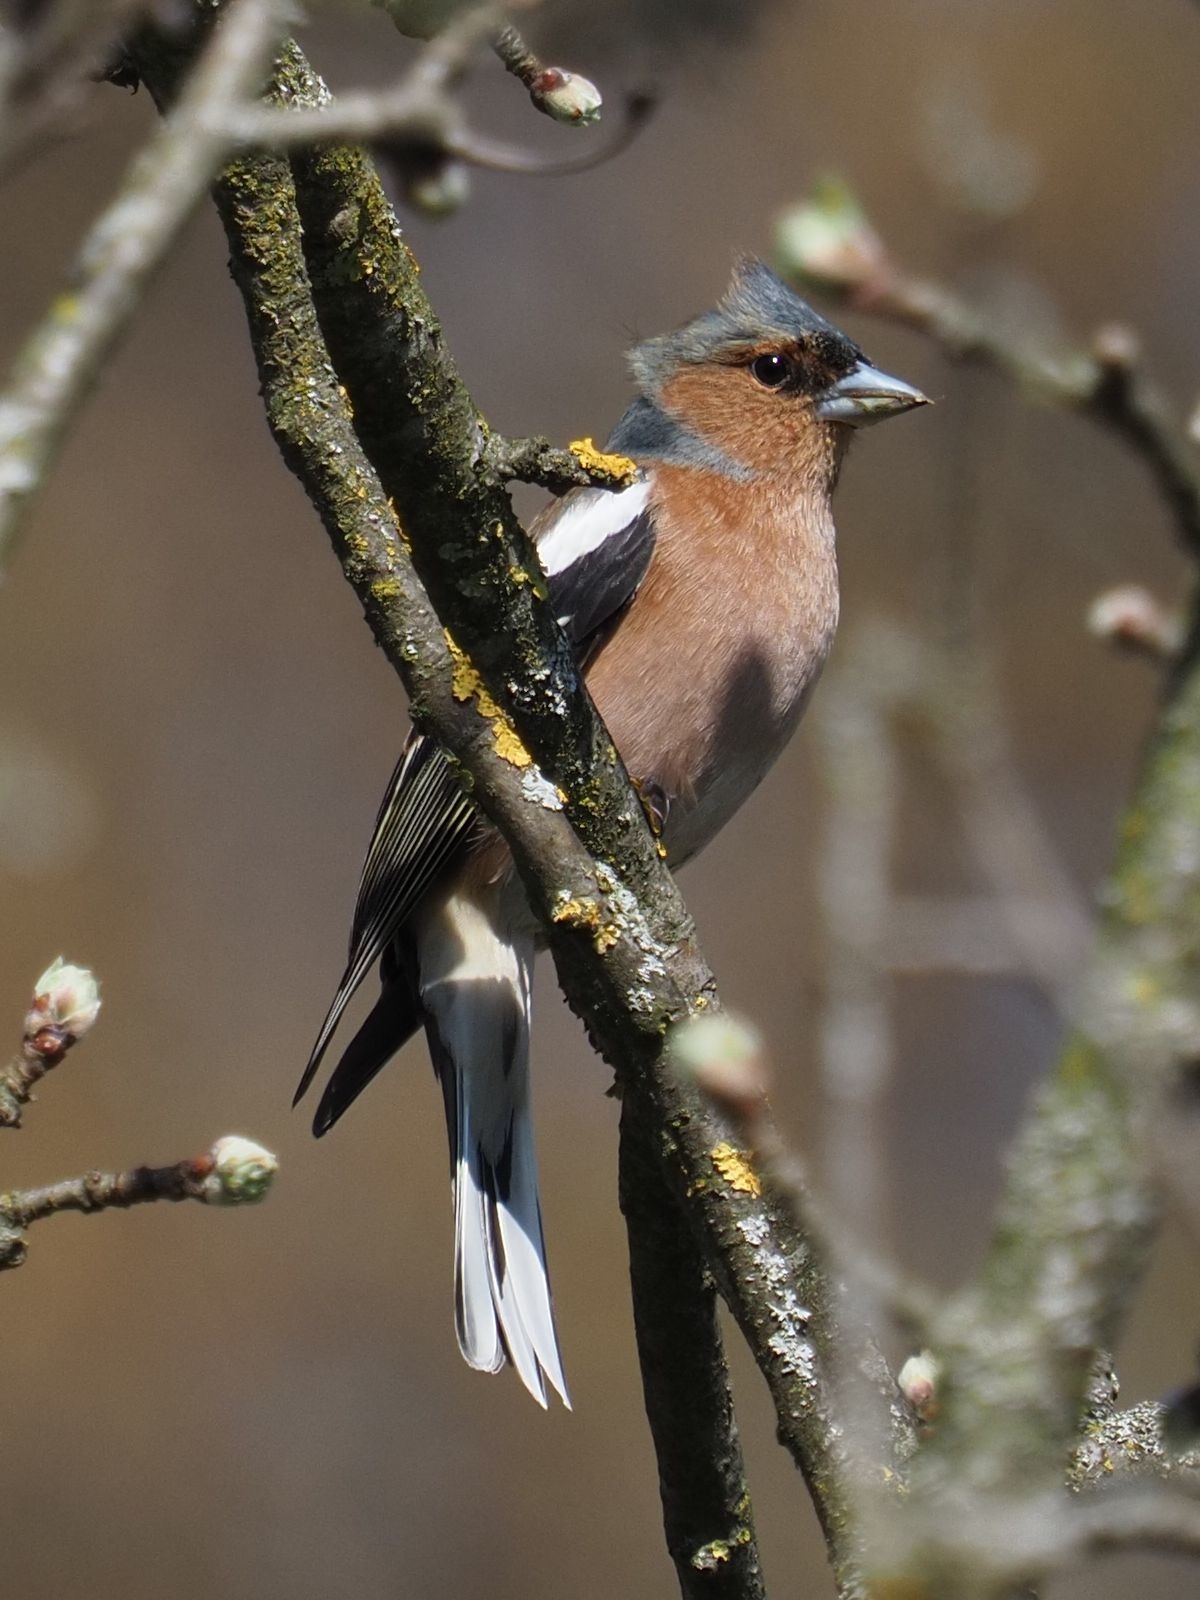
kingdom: Animalia
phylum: Chordata
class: Aves
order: Passeriformes
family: Fringillidae
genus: Fringilla
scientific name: Fringilla coelebs
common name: Common chaffinch
